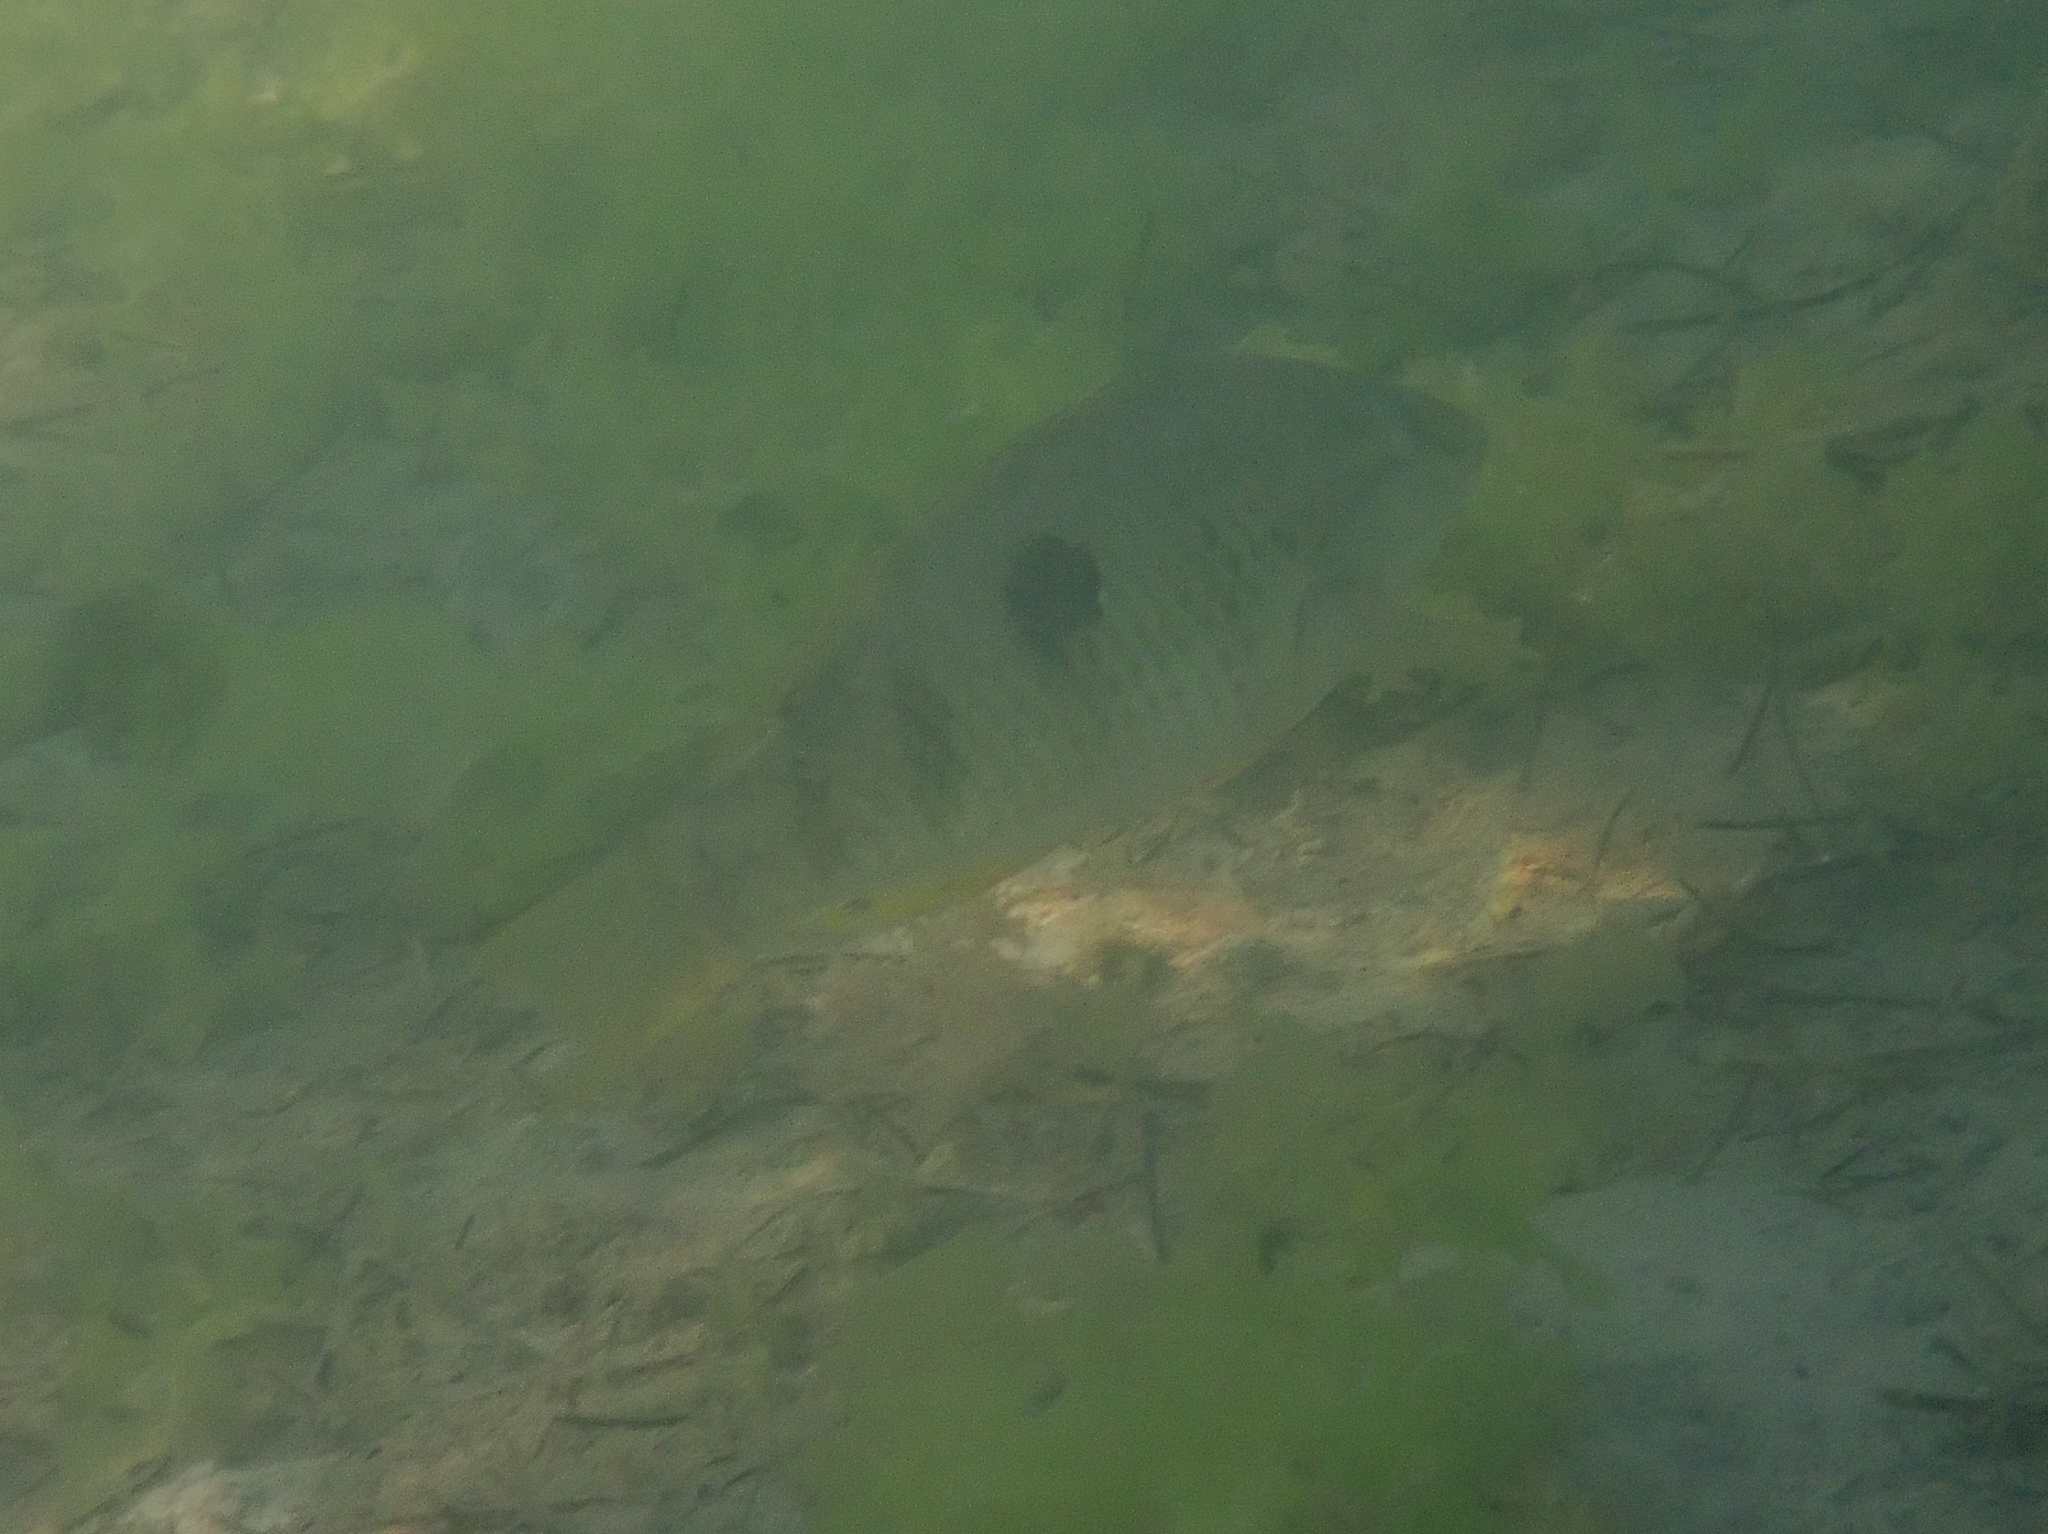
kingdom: Animalia
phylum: Chordata
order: Perciformes
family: Labridae
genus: Notolabrus
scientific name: Notolabrus celidotus
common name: Spotty
